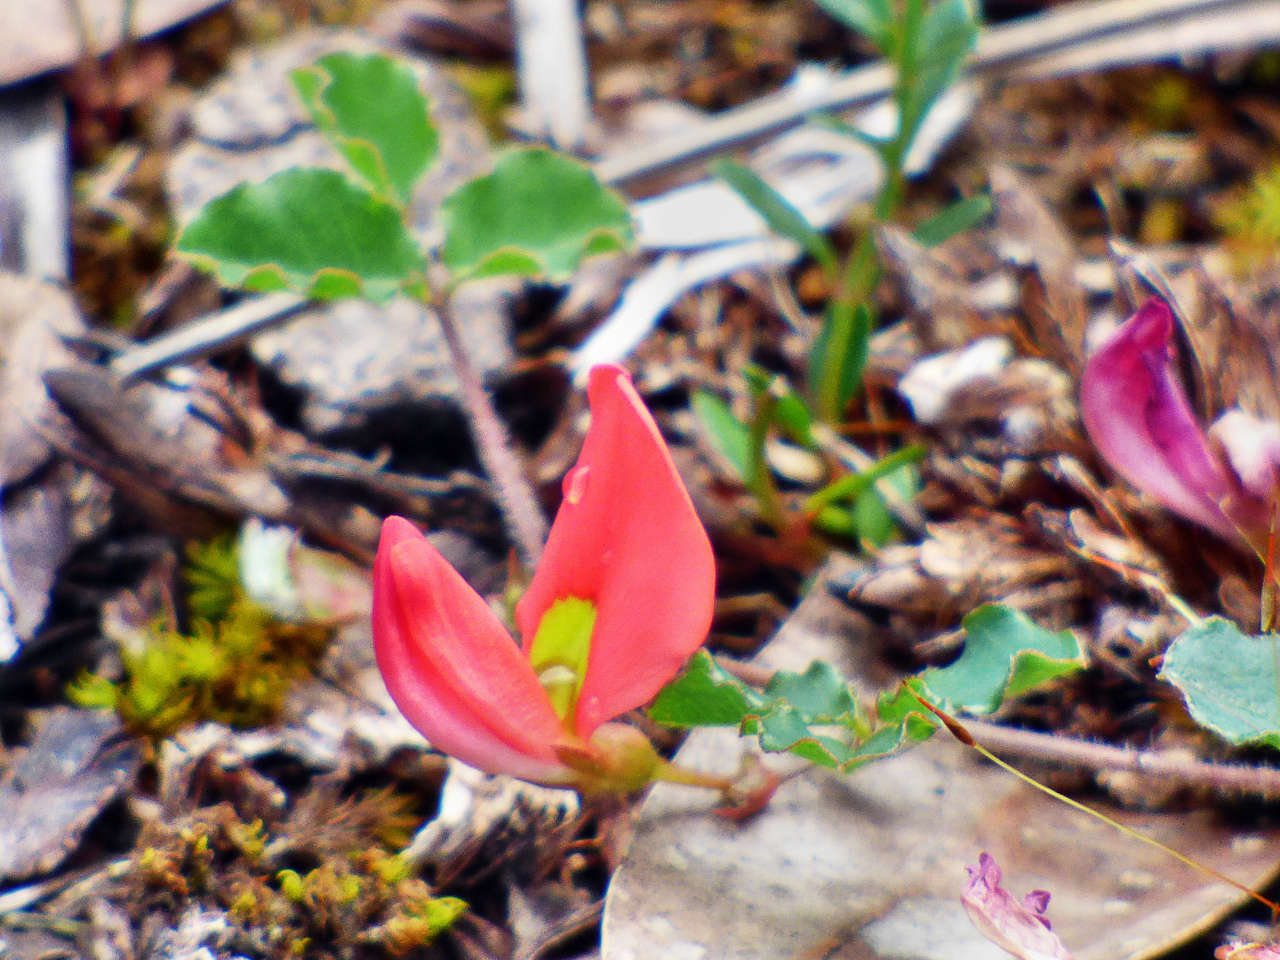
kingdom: Plantae
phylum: Tracheophyta
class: Magnoliopsida
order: Fabales
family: Fabaceae
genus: Kennedia
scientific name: Kennedia prostrata
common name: Running-postman
